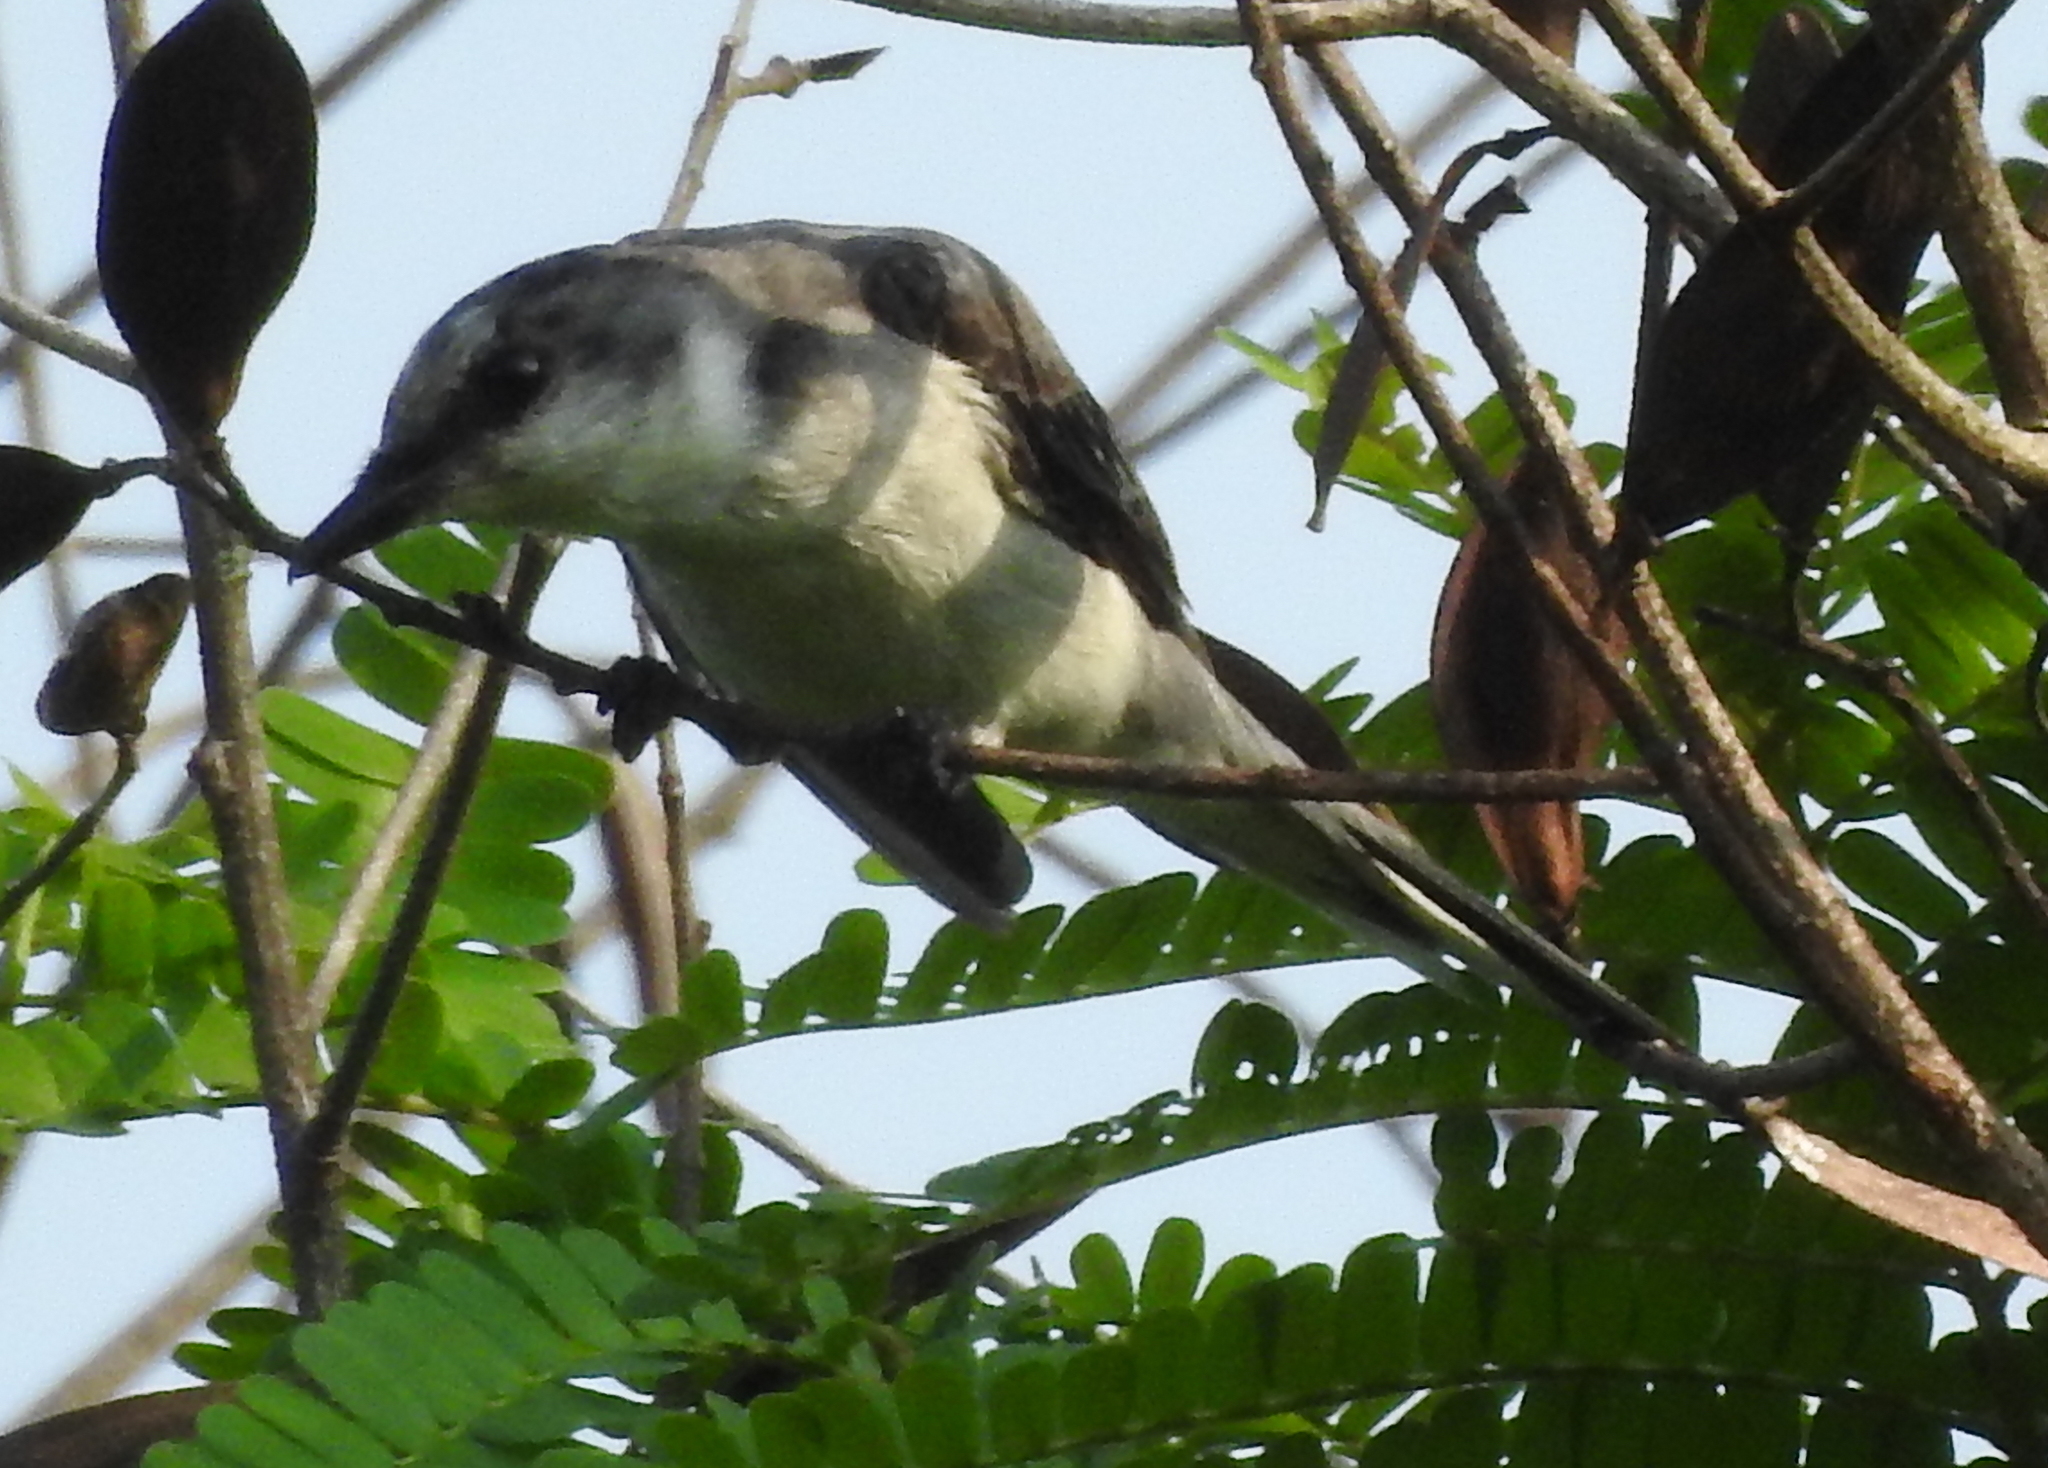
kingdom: Animalia
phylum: Chordata
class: Aves
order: Passeriformes
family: Campephagidae
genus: Pericrocotus
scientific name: Pericrocotus divaricatus
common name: Ashy minivet
